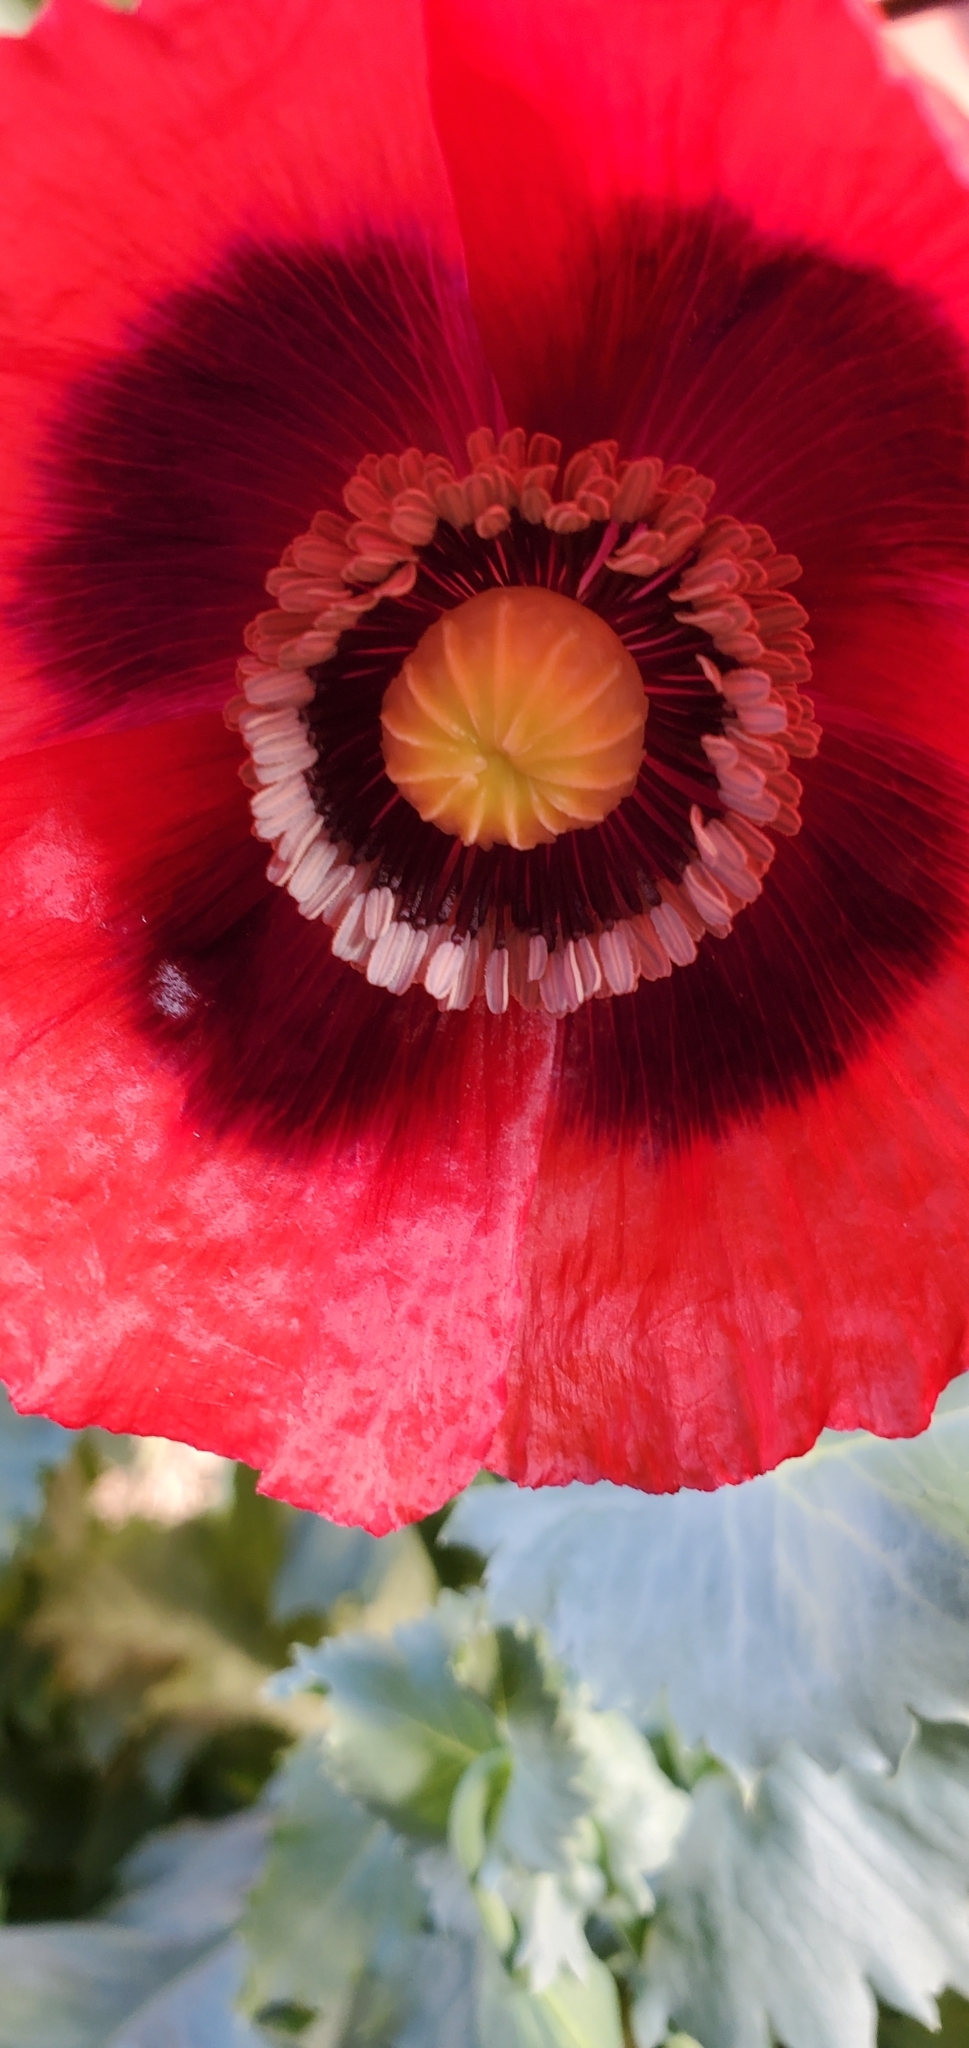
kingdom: Plantae
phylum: Tracheophyta
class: Magnoliopsida
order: Ranunculales
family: Papaveraceae
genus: Papaver
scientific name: Papaver somniferum
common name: Opium poppy
